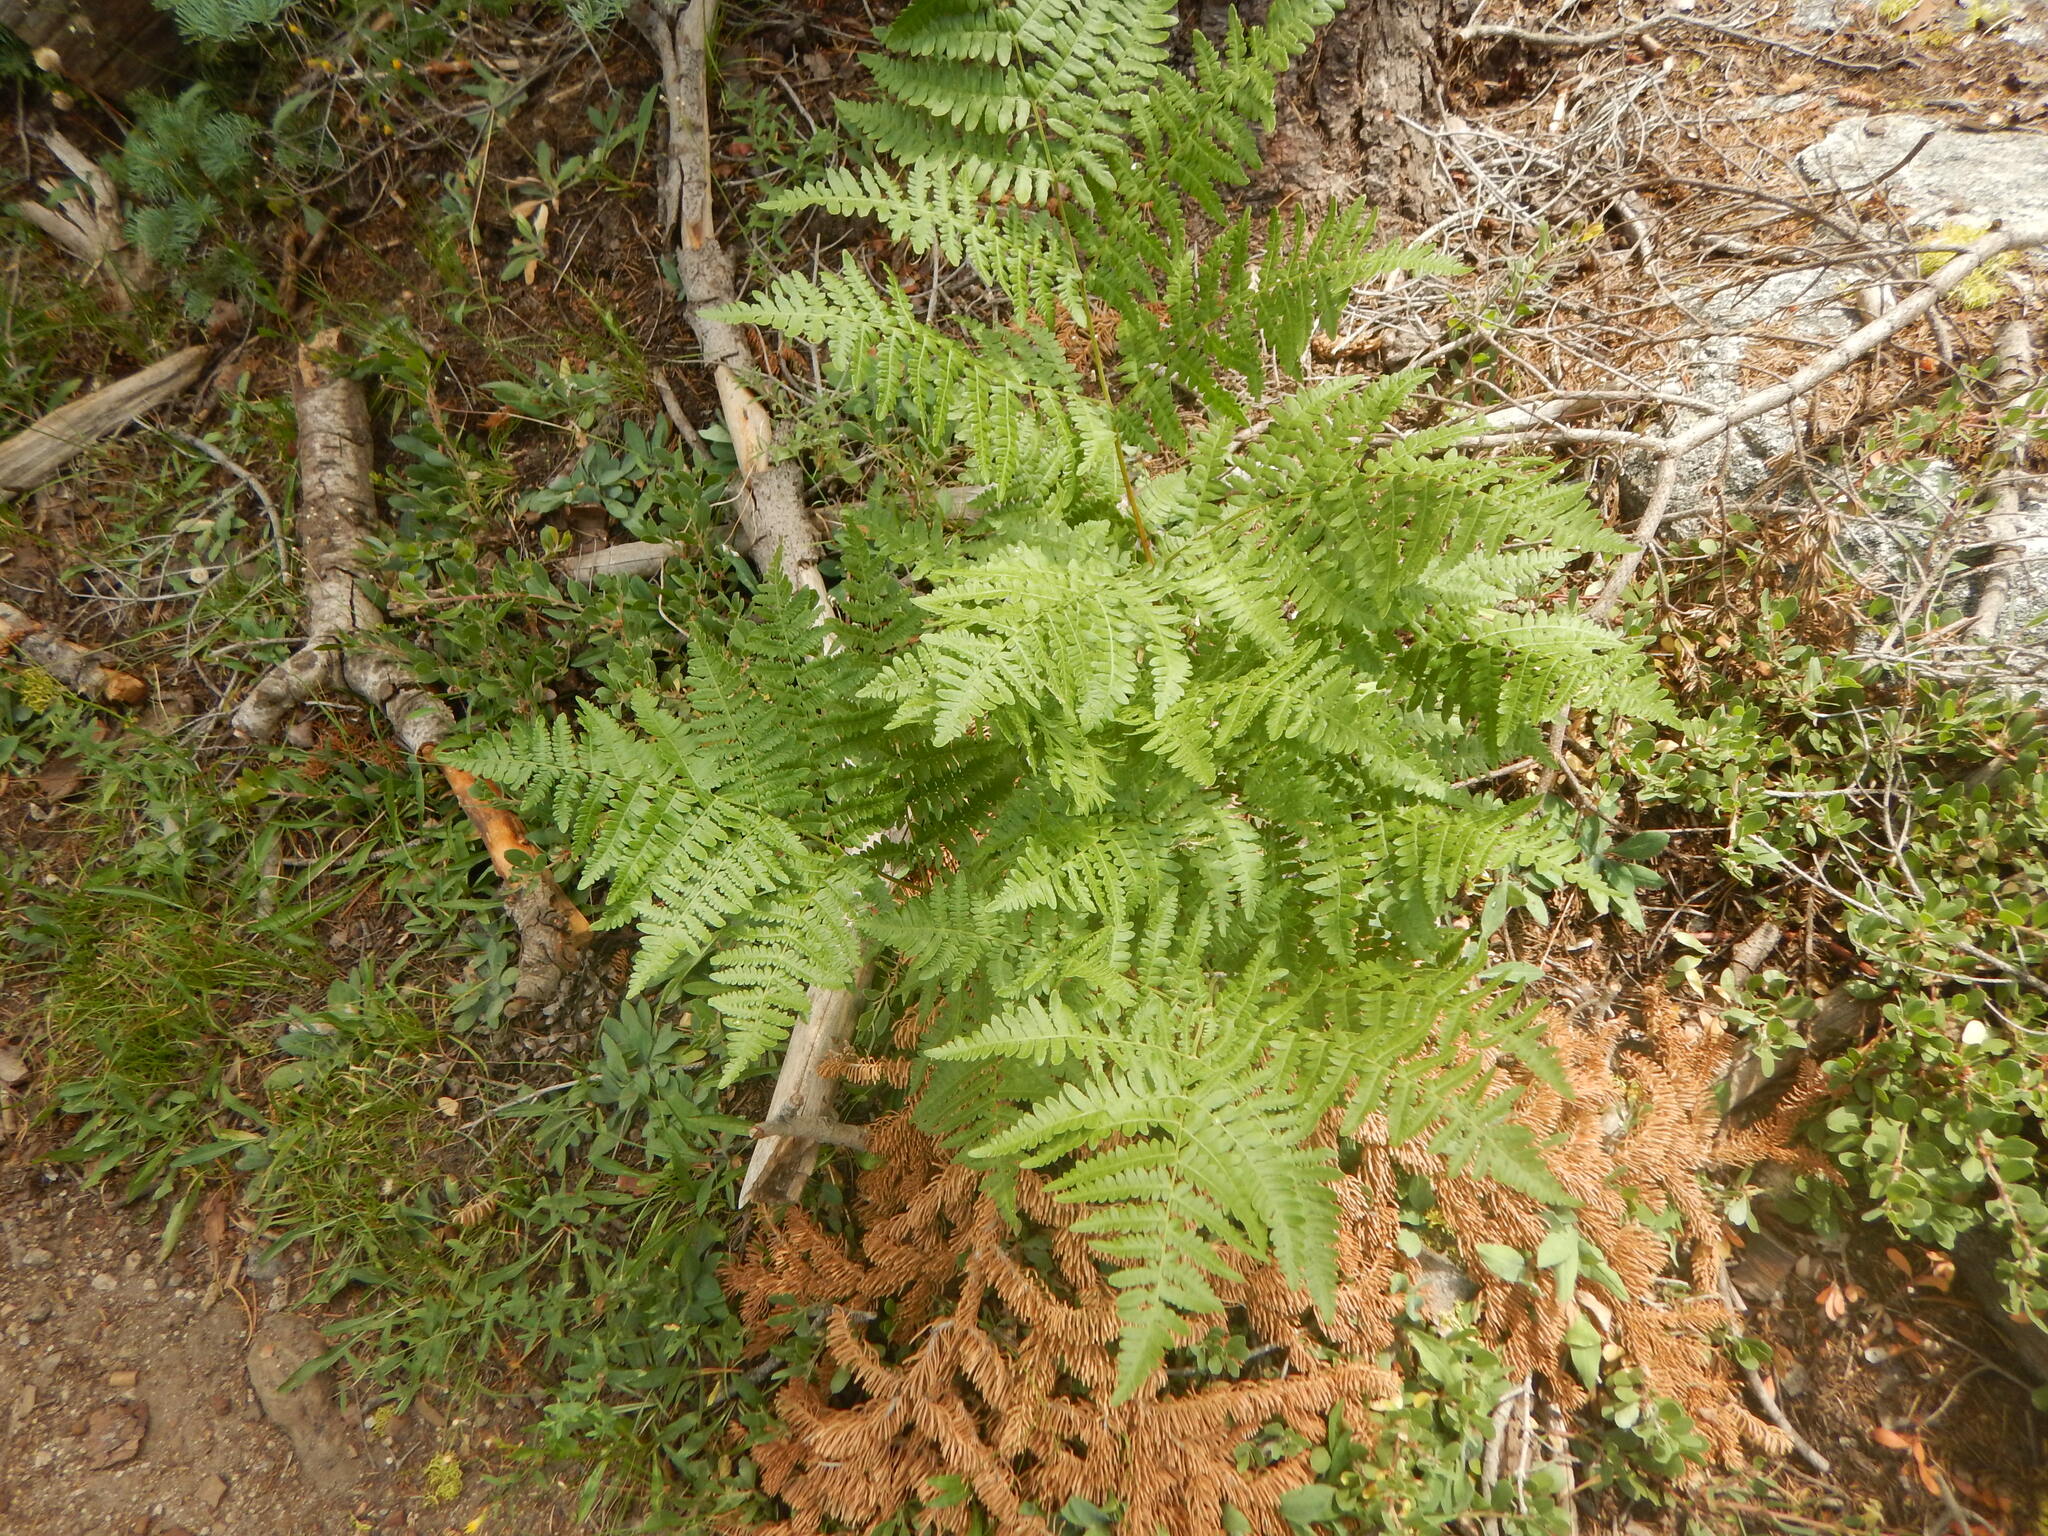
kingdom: Plantae
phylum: Tracheophyta
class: Polypodiopsida
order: Polypodiales
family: Dennstaedtiaceae
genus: Pteridium
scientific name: Pteridium aquilinum
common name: Bracken
